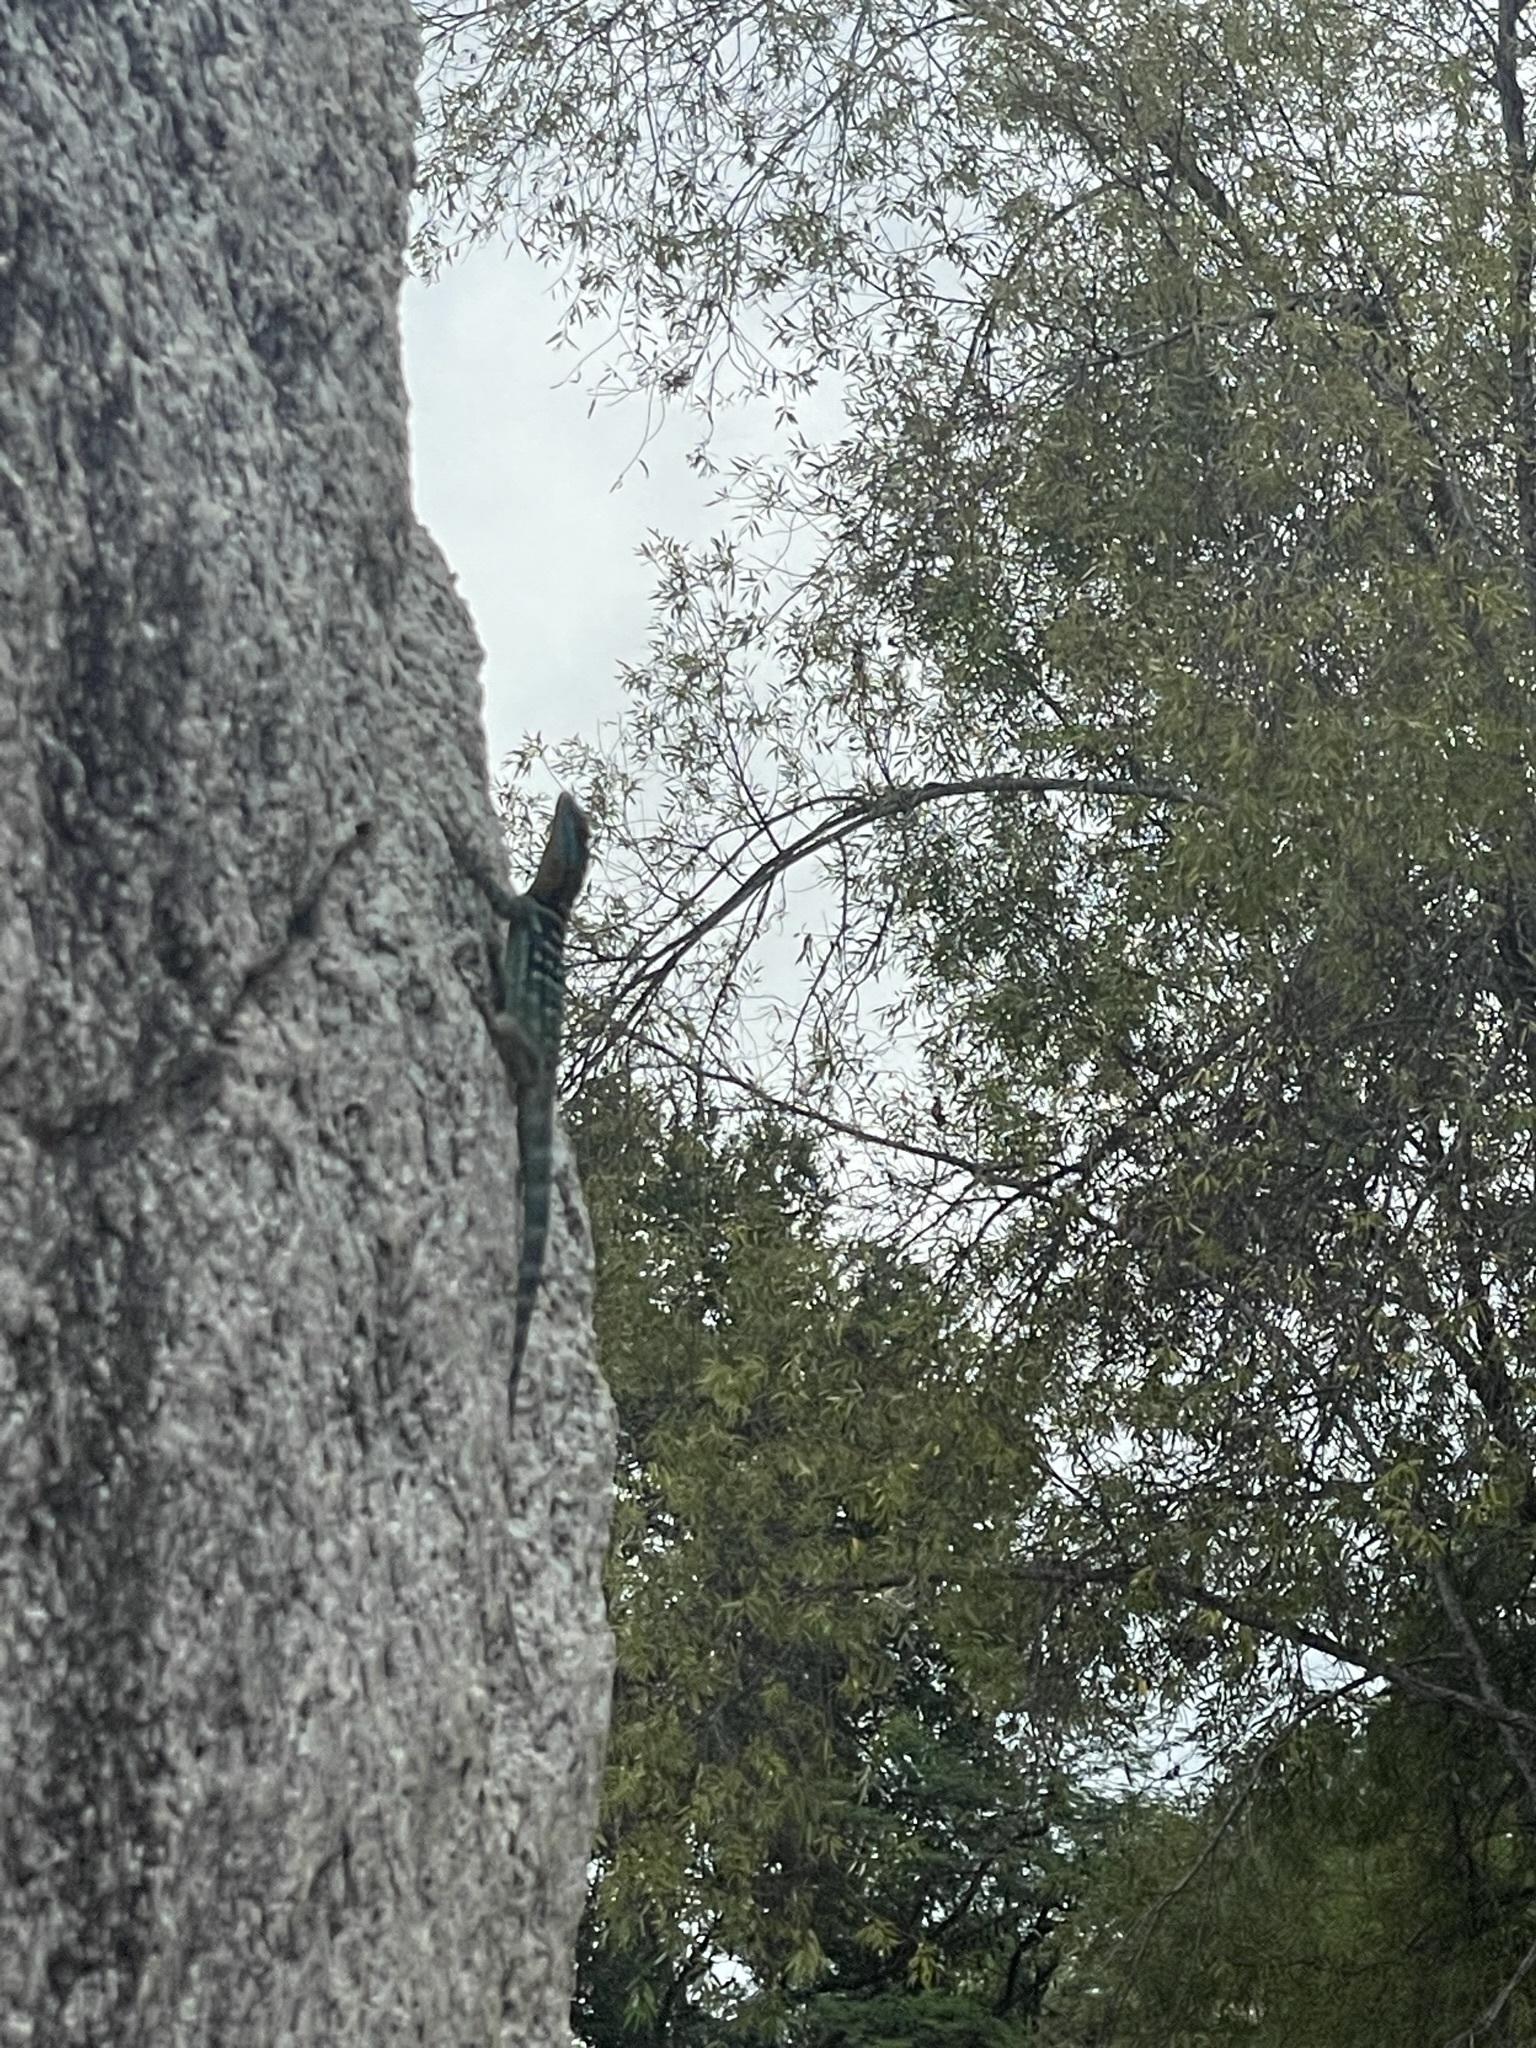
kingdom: Animalia
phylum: Chordata
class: Squamata
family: Phrynosomatidae
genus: Petrosaurus
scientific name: Petrosaurus thalassinus
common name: Baja california rock lizard
